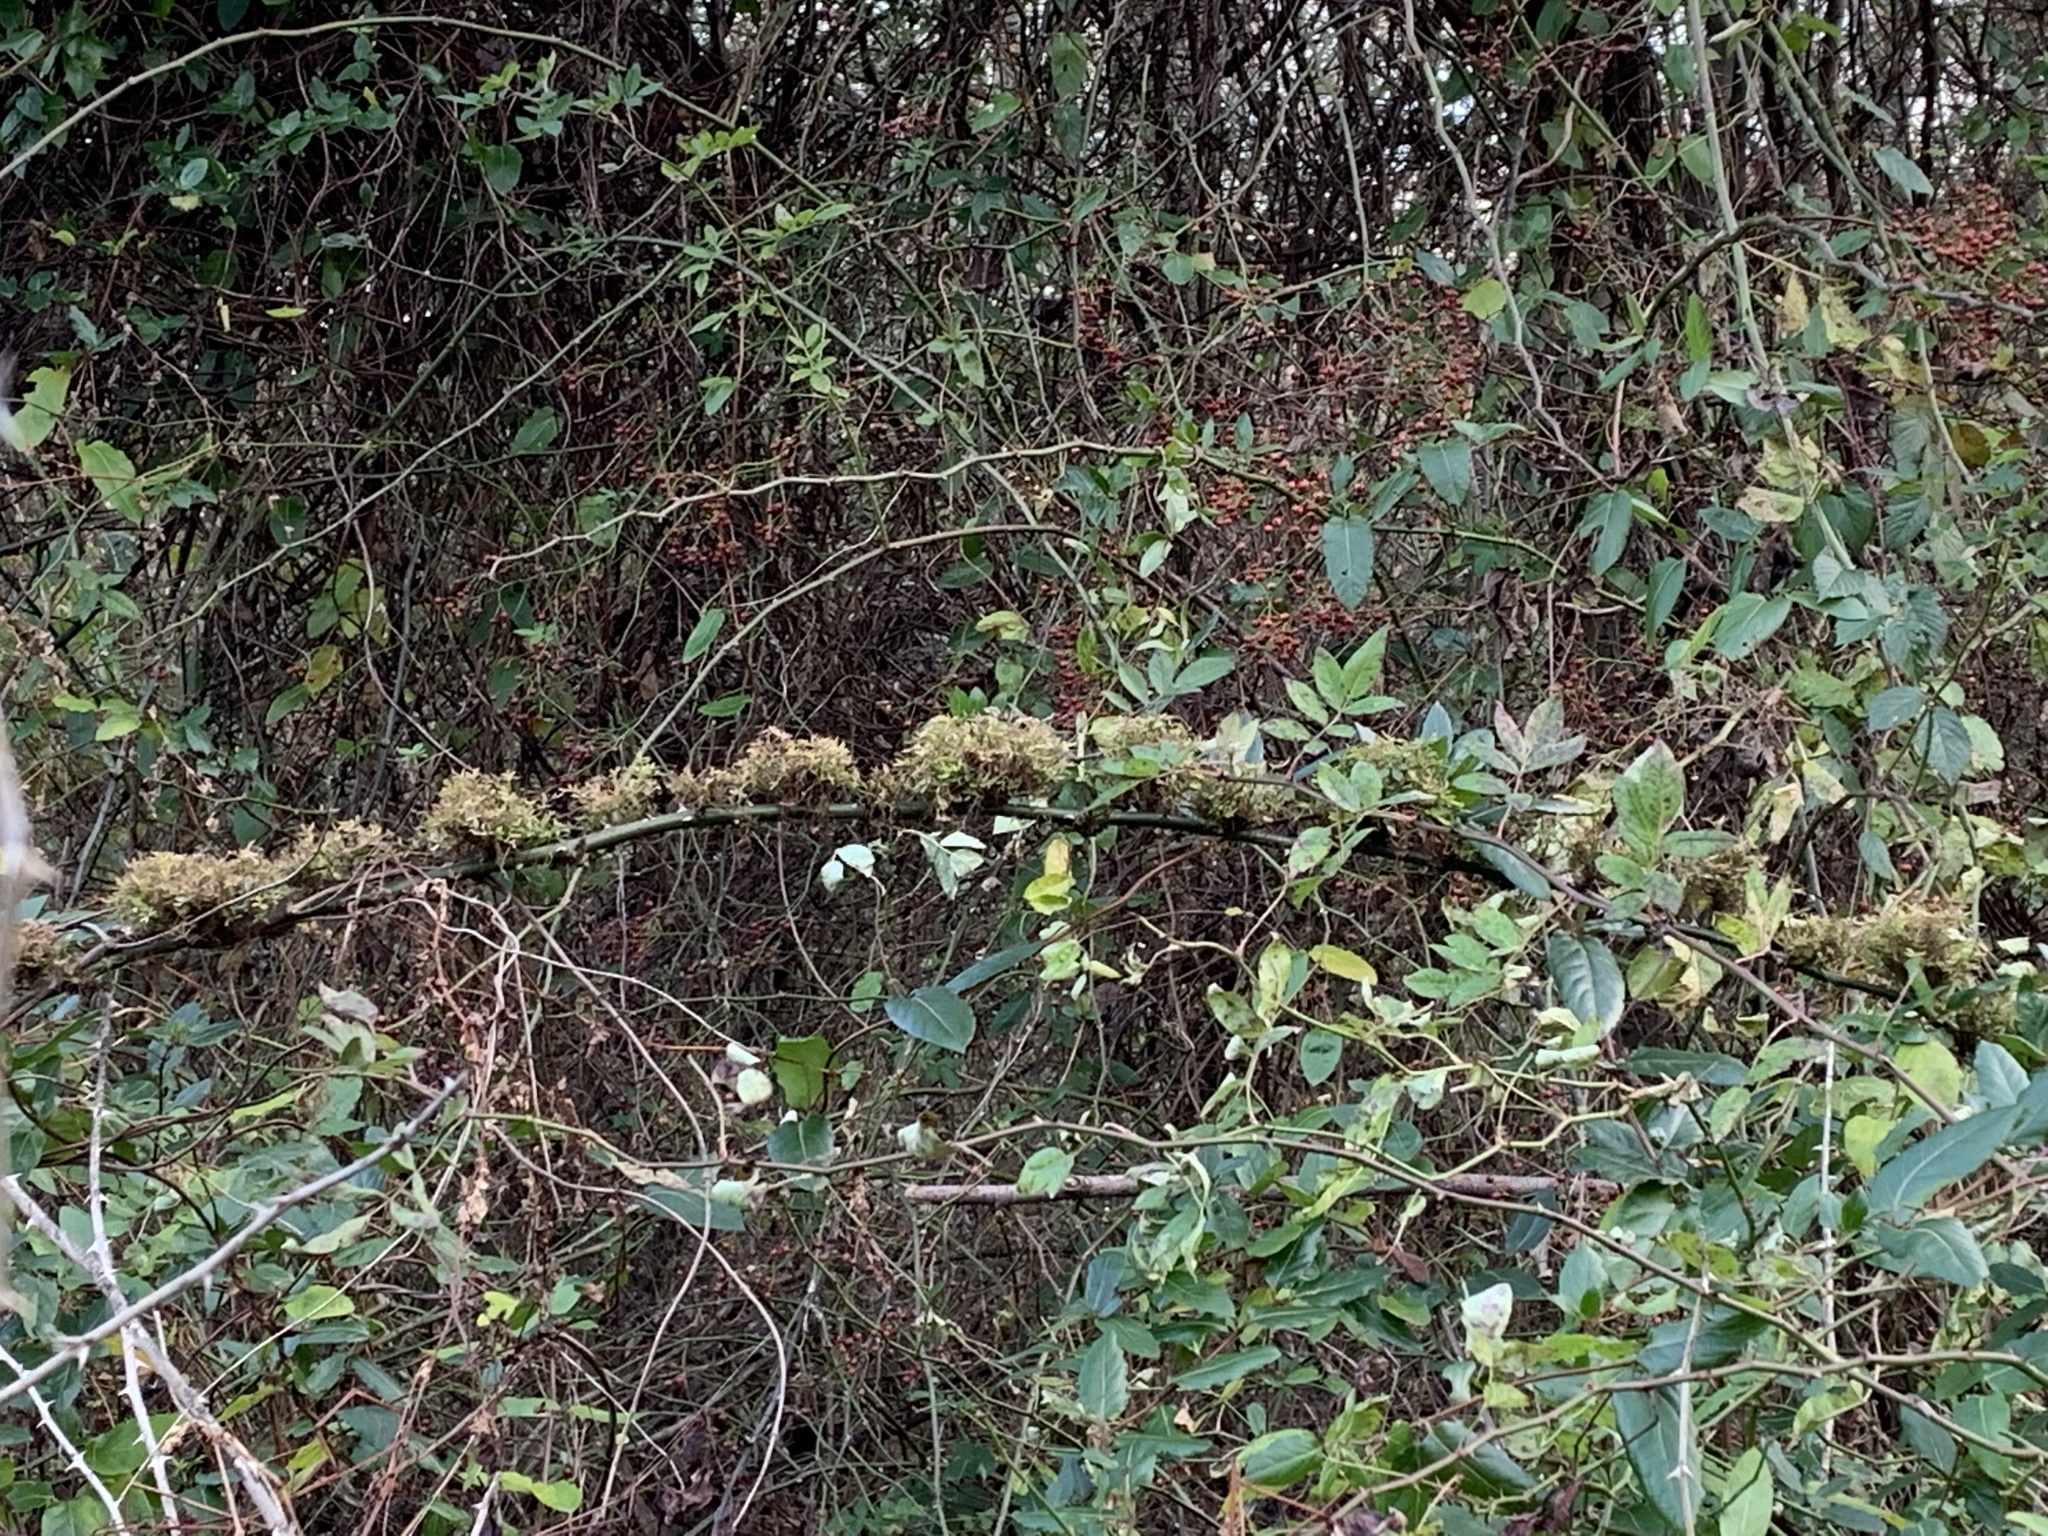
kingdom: Viruses
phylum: Negarnaviricota
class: Ellioviricetes
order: Bunyavirales
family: Fimoviridae
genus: Emaravirus
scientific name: Emaravirus rosae
